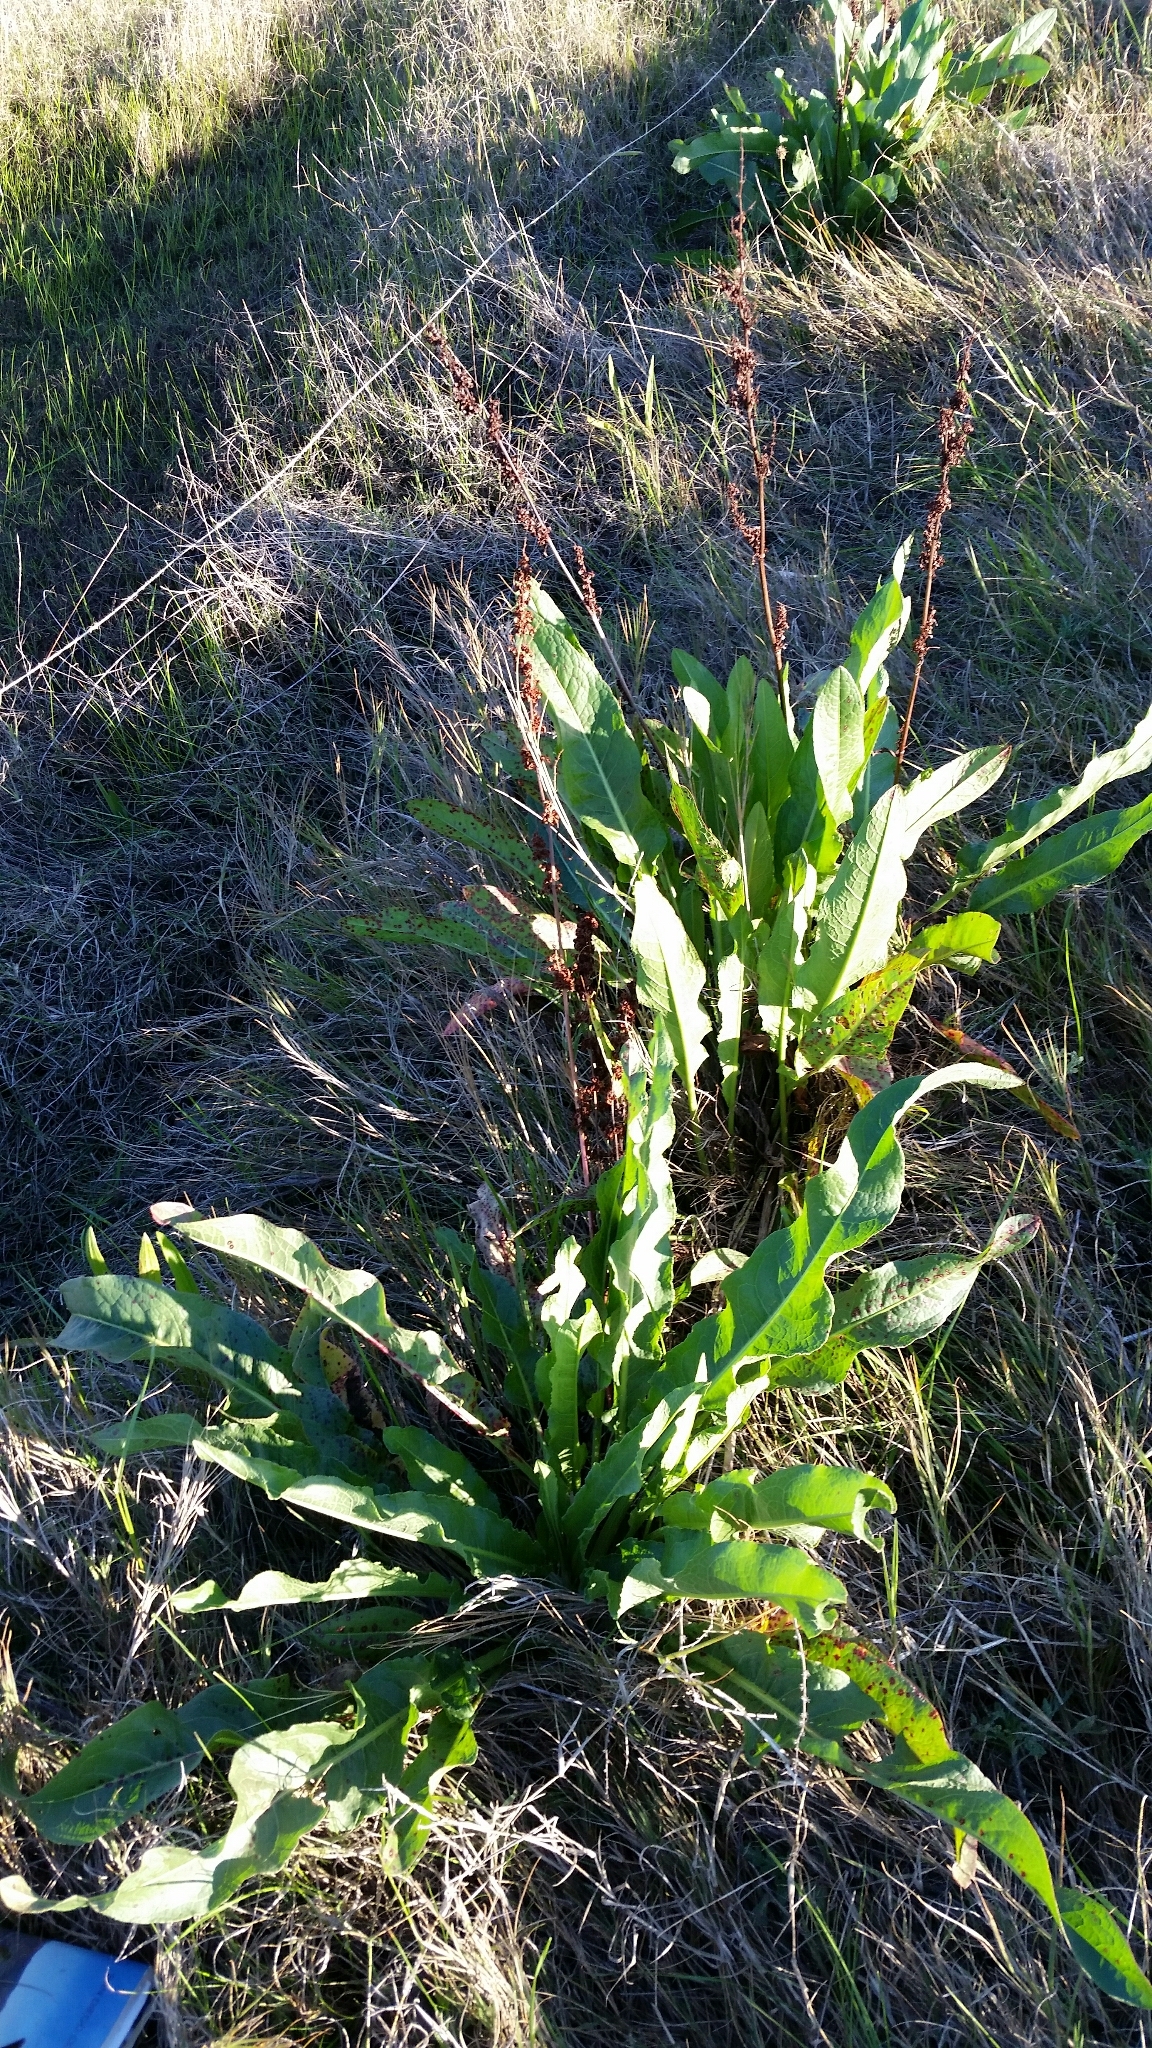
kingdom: Plantae
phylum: Tracheophyta
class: Magnoliopsida
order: Caryophyllales
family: Polygonaceae
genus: Rumex
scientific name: Rumex crispus
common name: Curled dock
